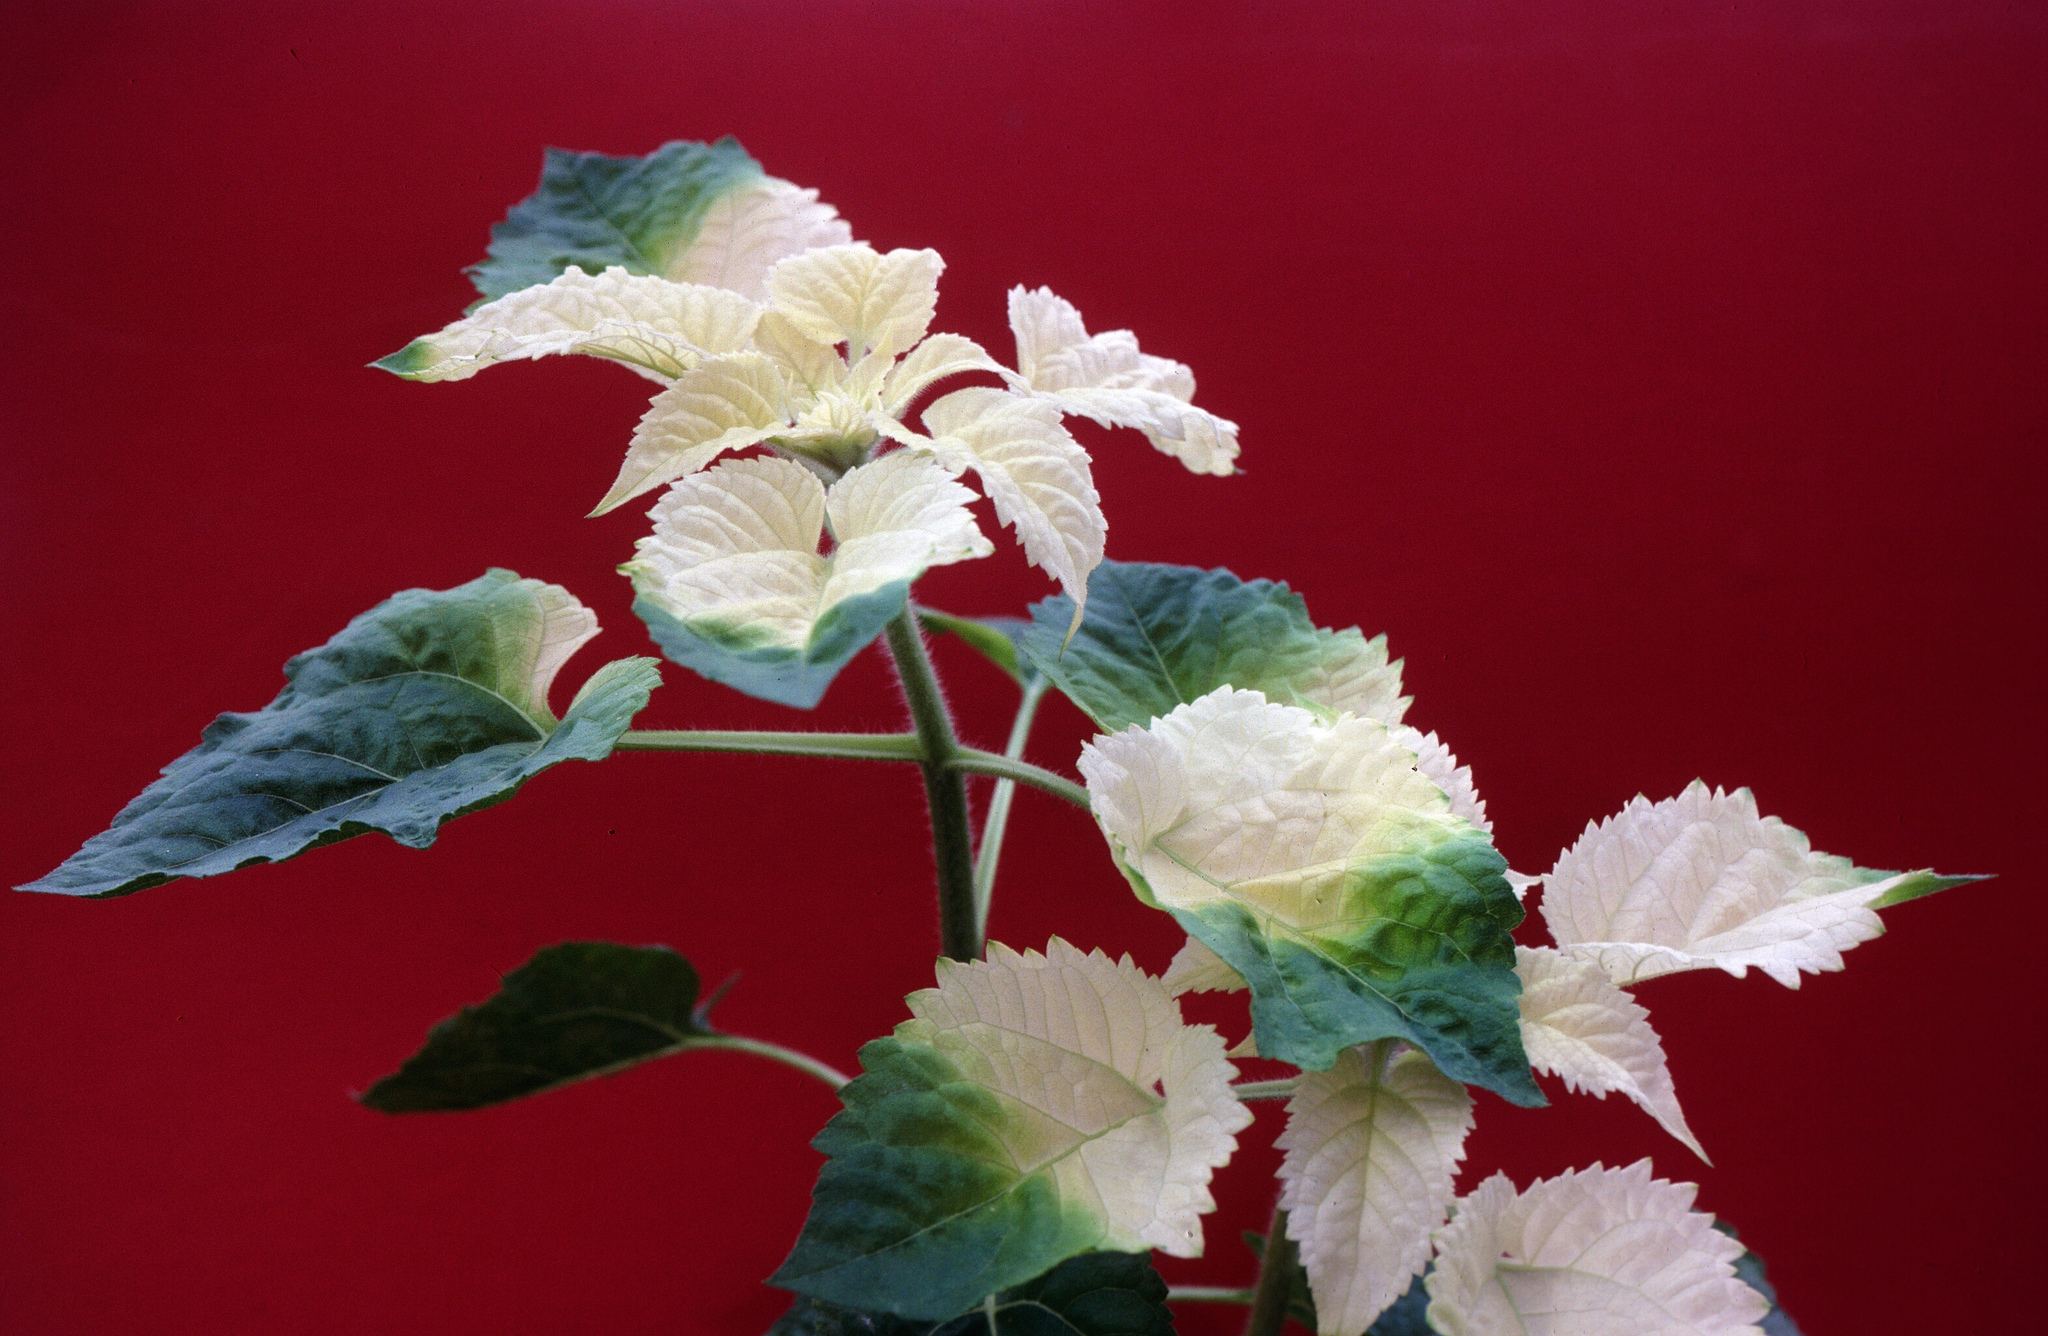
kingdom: Bacteria
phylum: Proteobacteria
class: Gammaproteobacteria
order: Pseudomonadales
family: Pseudomonadaceae
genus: Pseudomonas
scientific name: Pseudomonas syringae
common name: Bacterial speck
